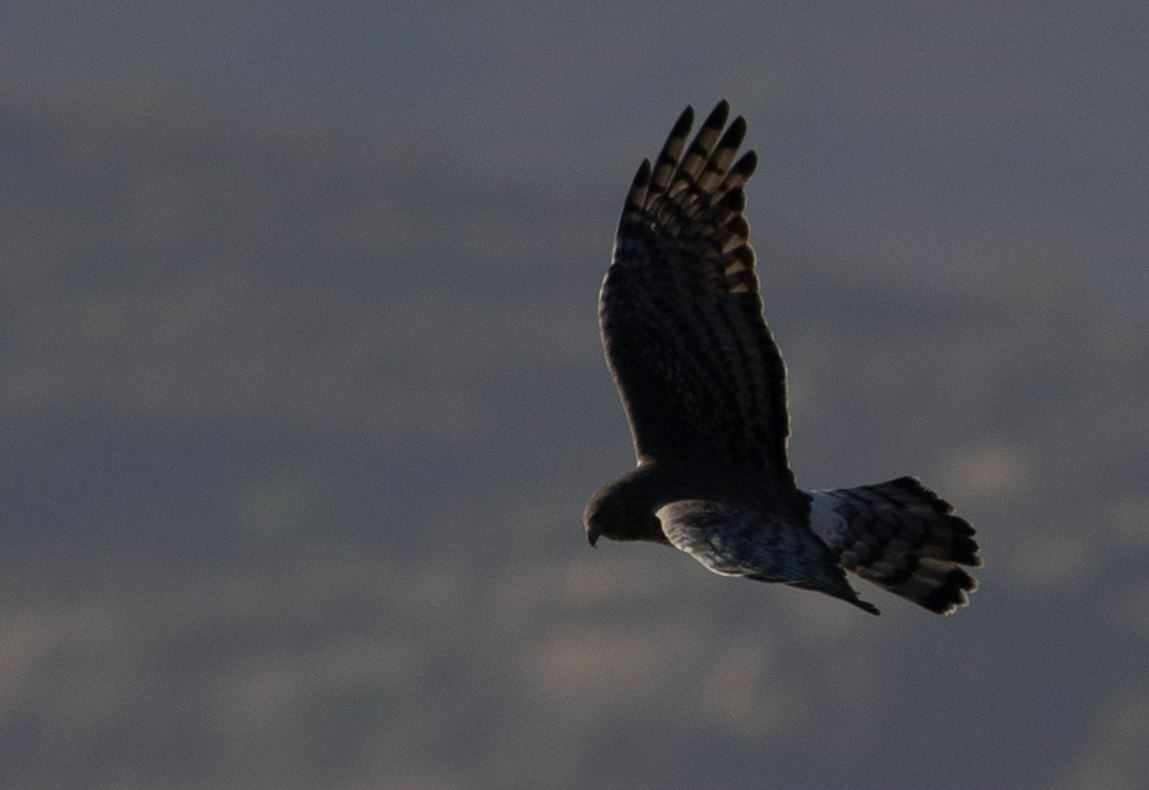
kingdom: Animalia
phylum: Chordata
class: Aves
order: Accipitriformes
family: Accipitridae
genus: Circus
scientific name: Circus cinereus
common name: Cinereous harrier
